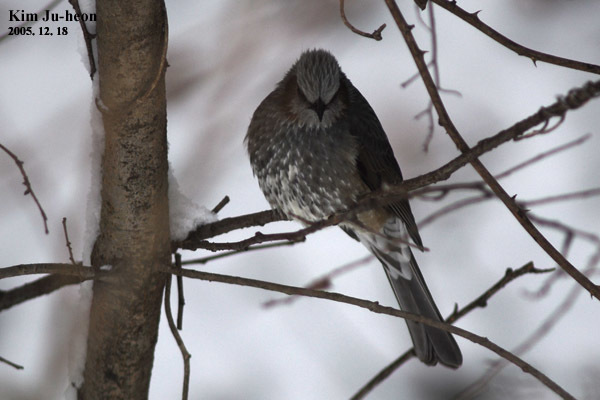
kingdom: Animalia
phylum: Chordata
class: Aves
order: Passeriformes
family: Pycnonotidae
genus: Hypsipetes
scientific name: Hypsipetes amaurotis
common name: Brown-eared bulbul
